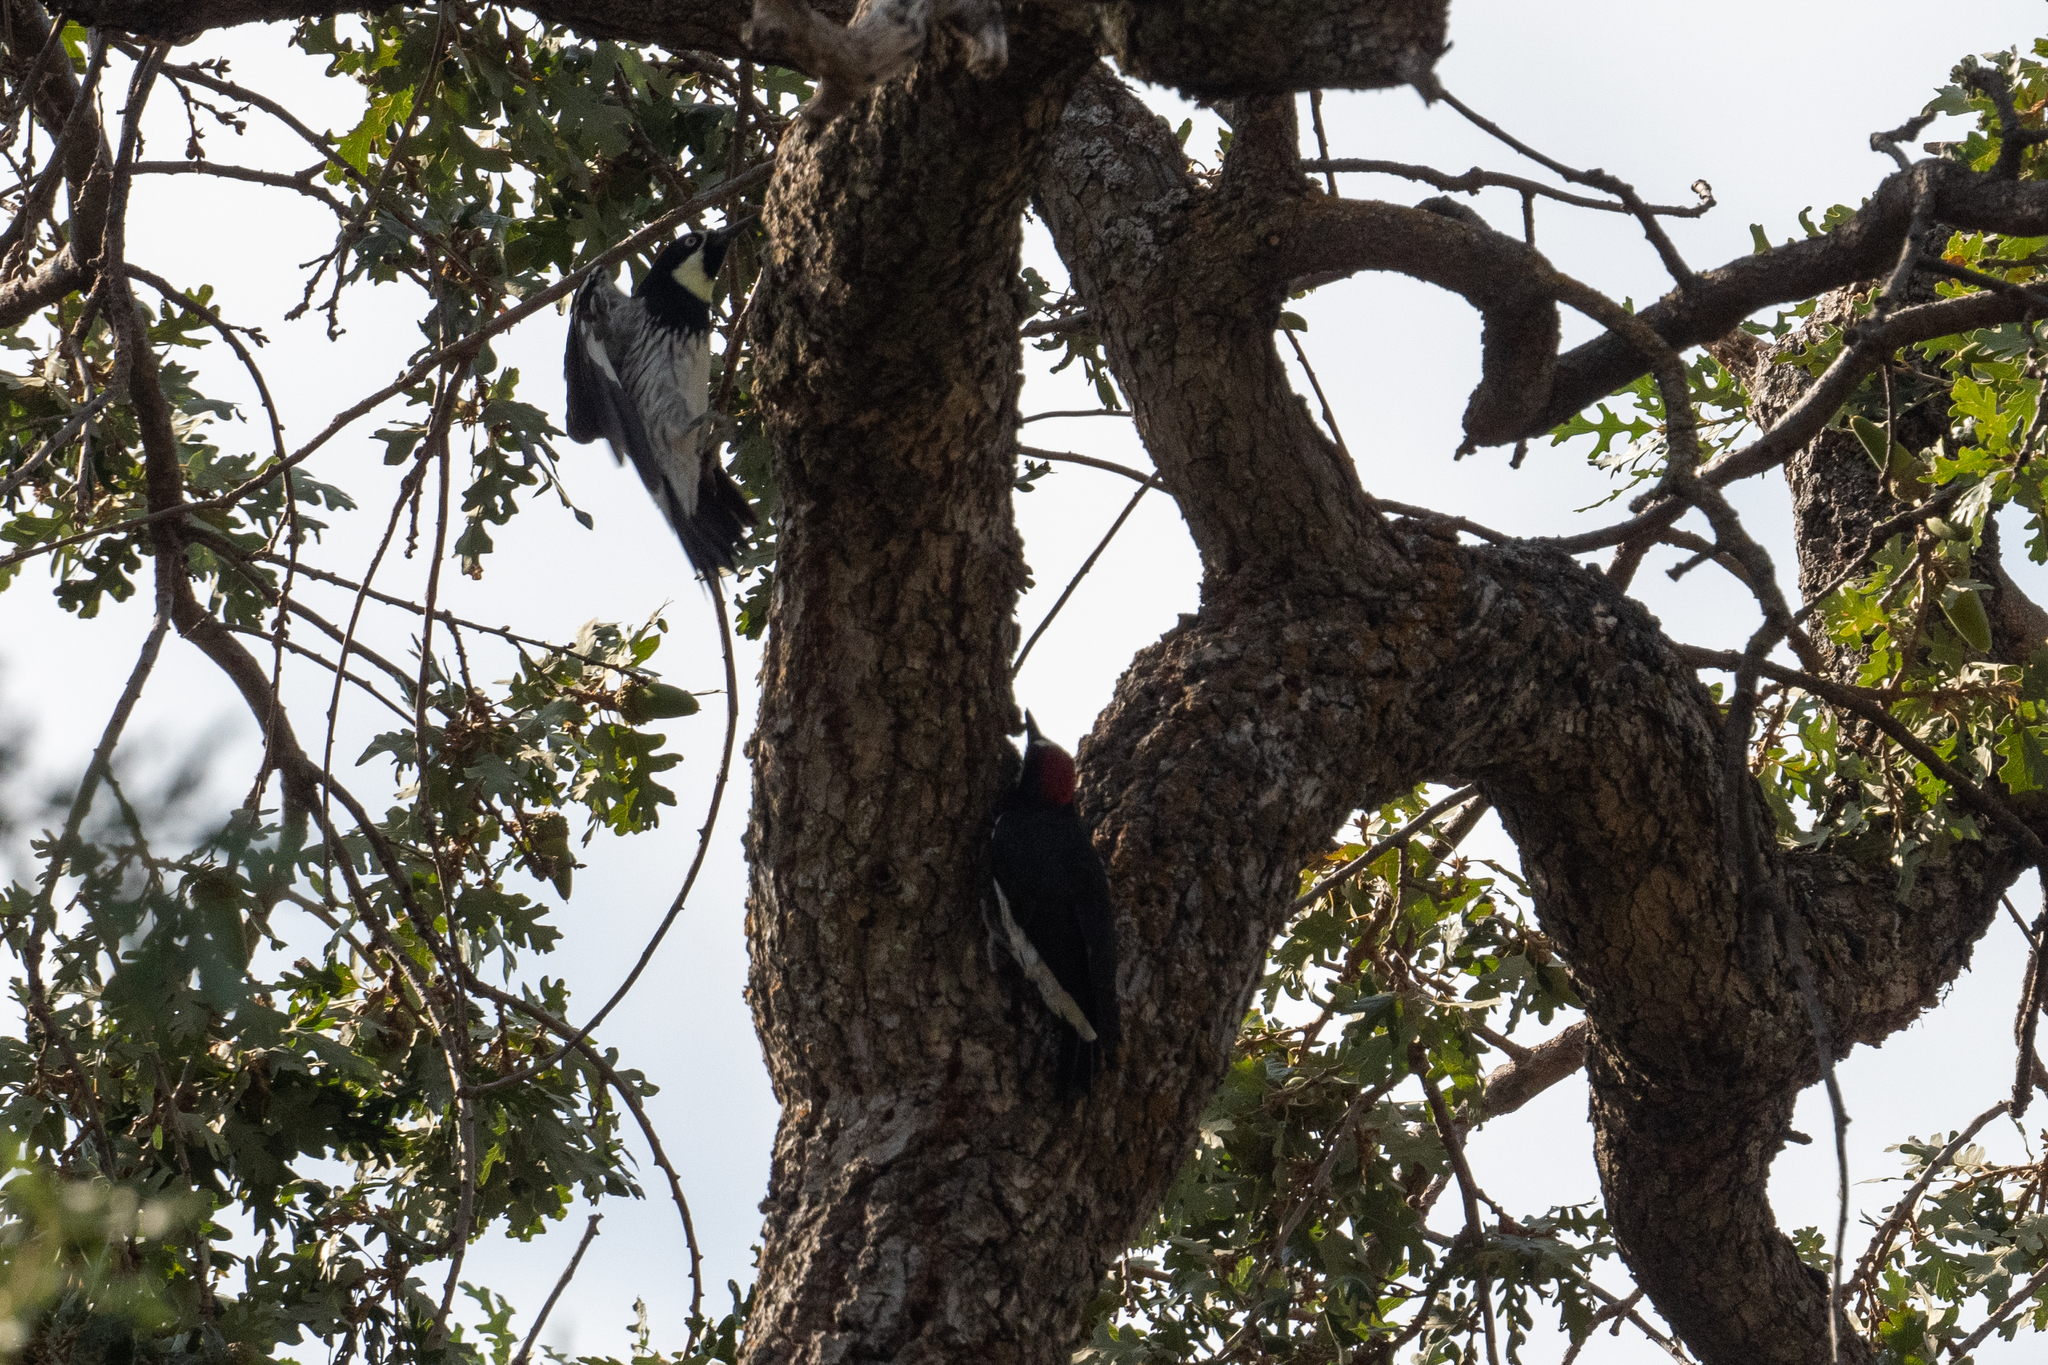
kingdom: Animalia
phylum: Chordata
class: Aves
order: Piciformes
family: Picidae
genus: Melanerpes
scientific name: Melanerpes formicivorus
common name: Acorn woodpecker
